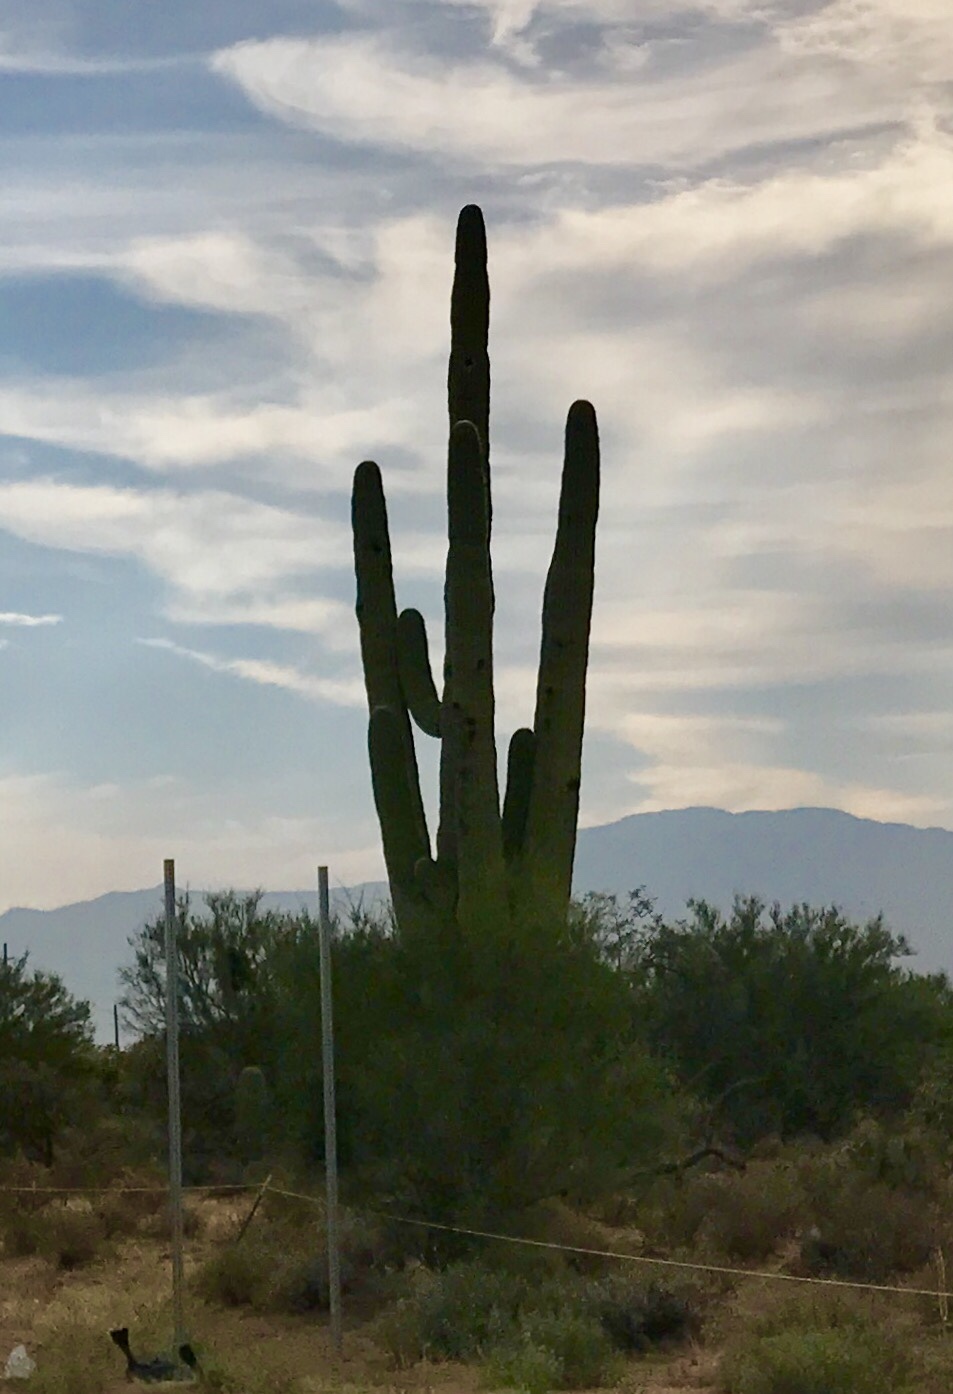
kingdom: Plantae
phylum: Tracheophyta
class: Magnoliopsida
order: Caryophyllales
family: Cactaceae
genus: Carnegiea
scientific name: Carnegiea gigantea
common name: Saguaro
